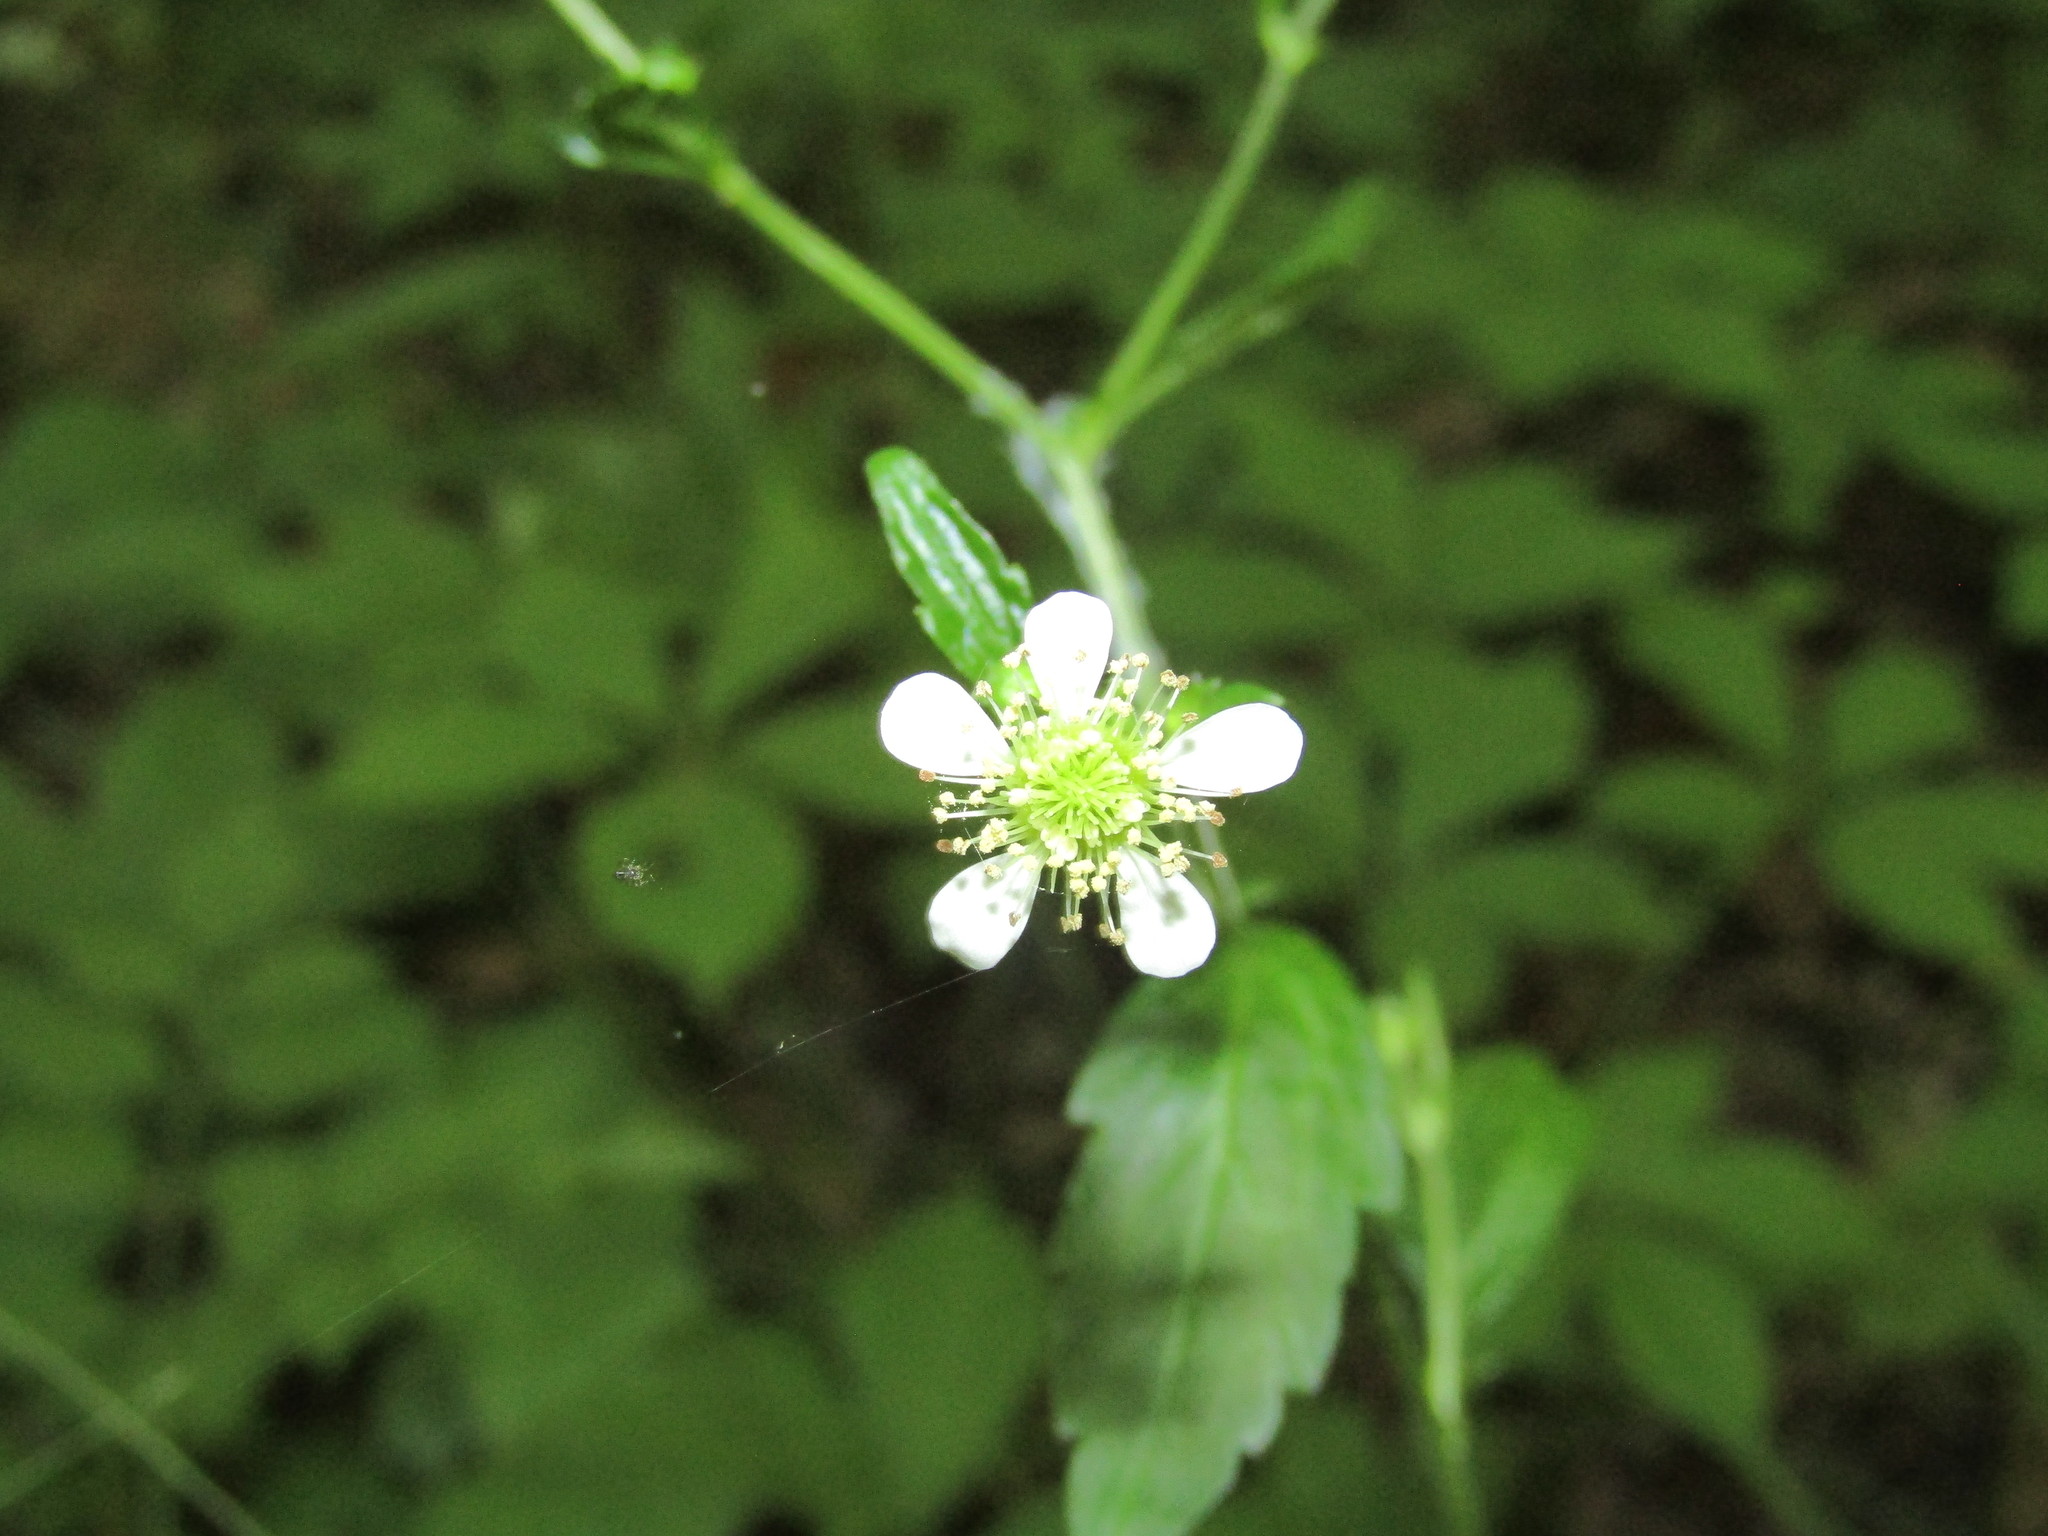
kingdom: Plantae
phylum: Tracheophyta
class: Magnoliopsida
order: Rosales
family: Rosaceae
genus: Geum
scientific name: Geum canadense
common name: White avens
